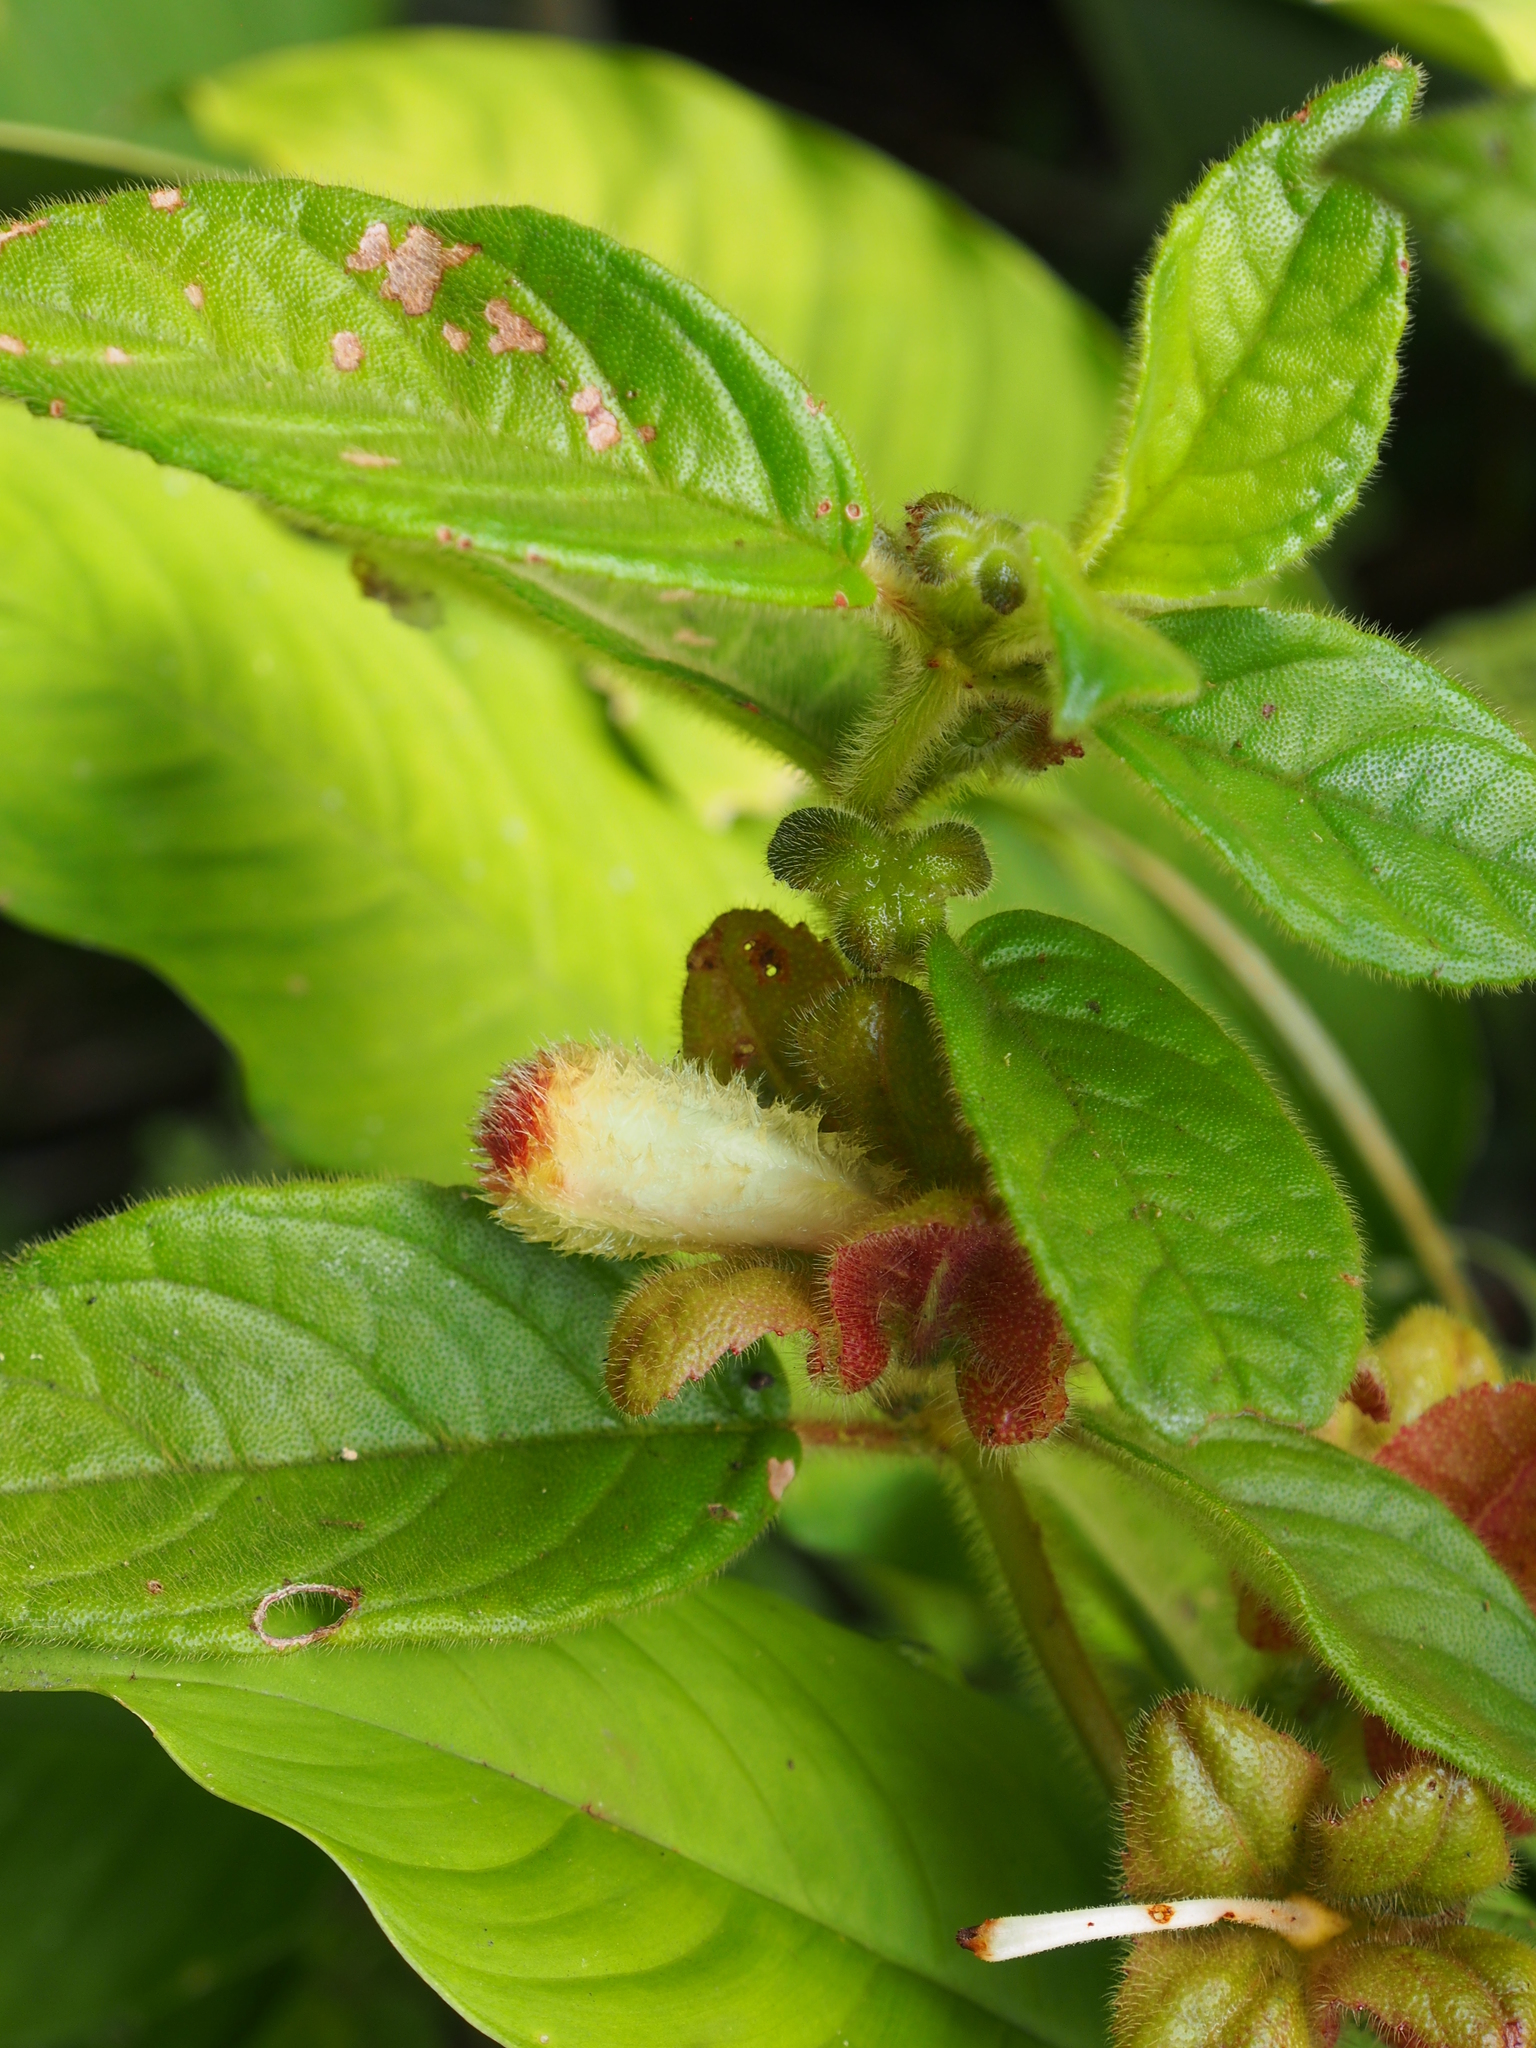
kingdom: Plantae
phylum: Tracheophyta
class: Magnoliopsida
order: Lamiales
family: Gesneriaceae
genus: Drymonia
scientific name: Drymonia alloplectoides
